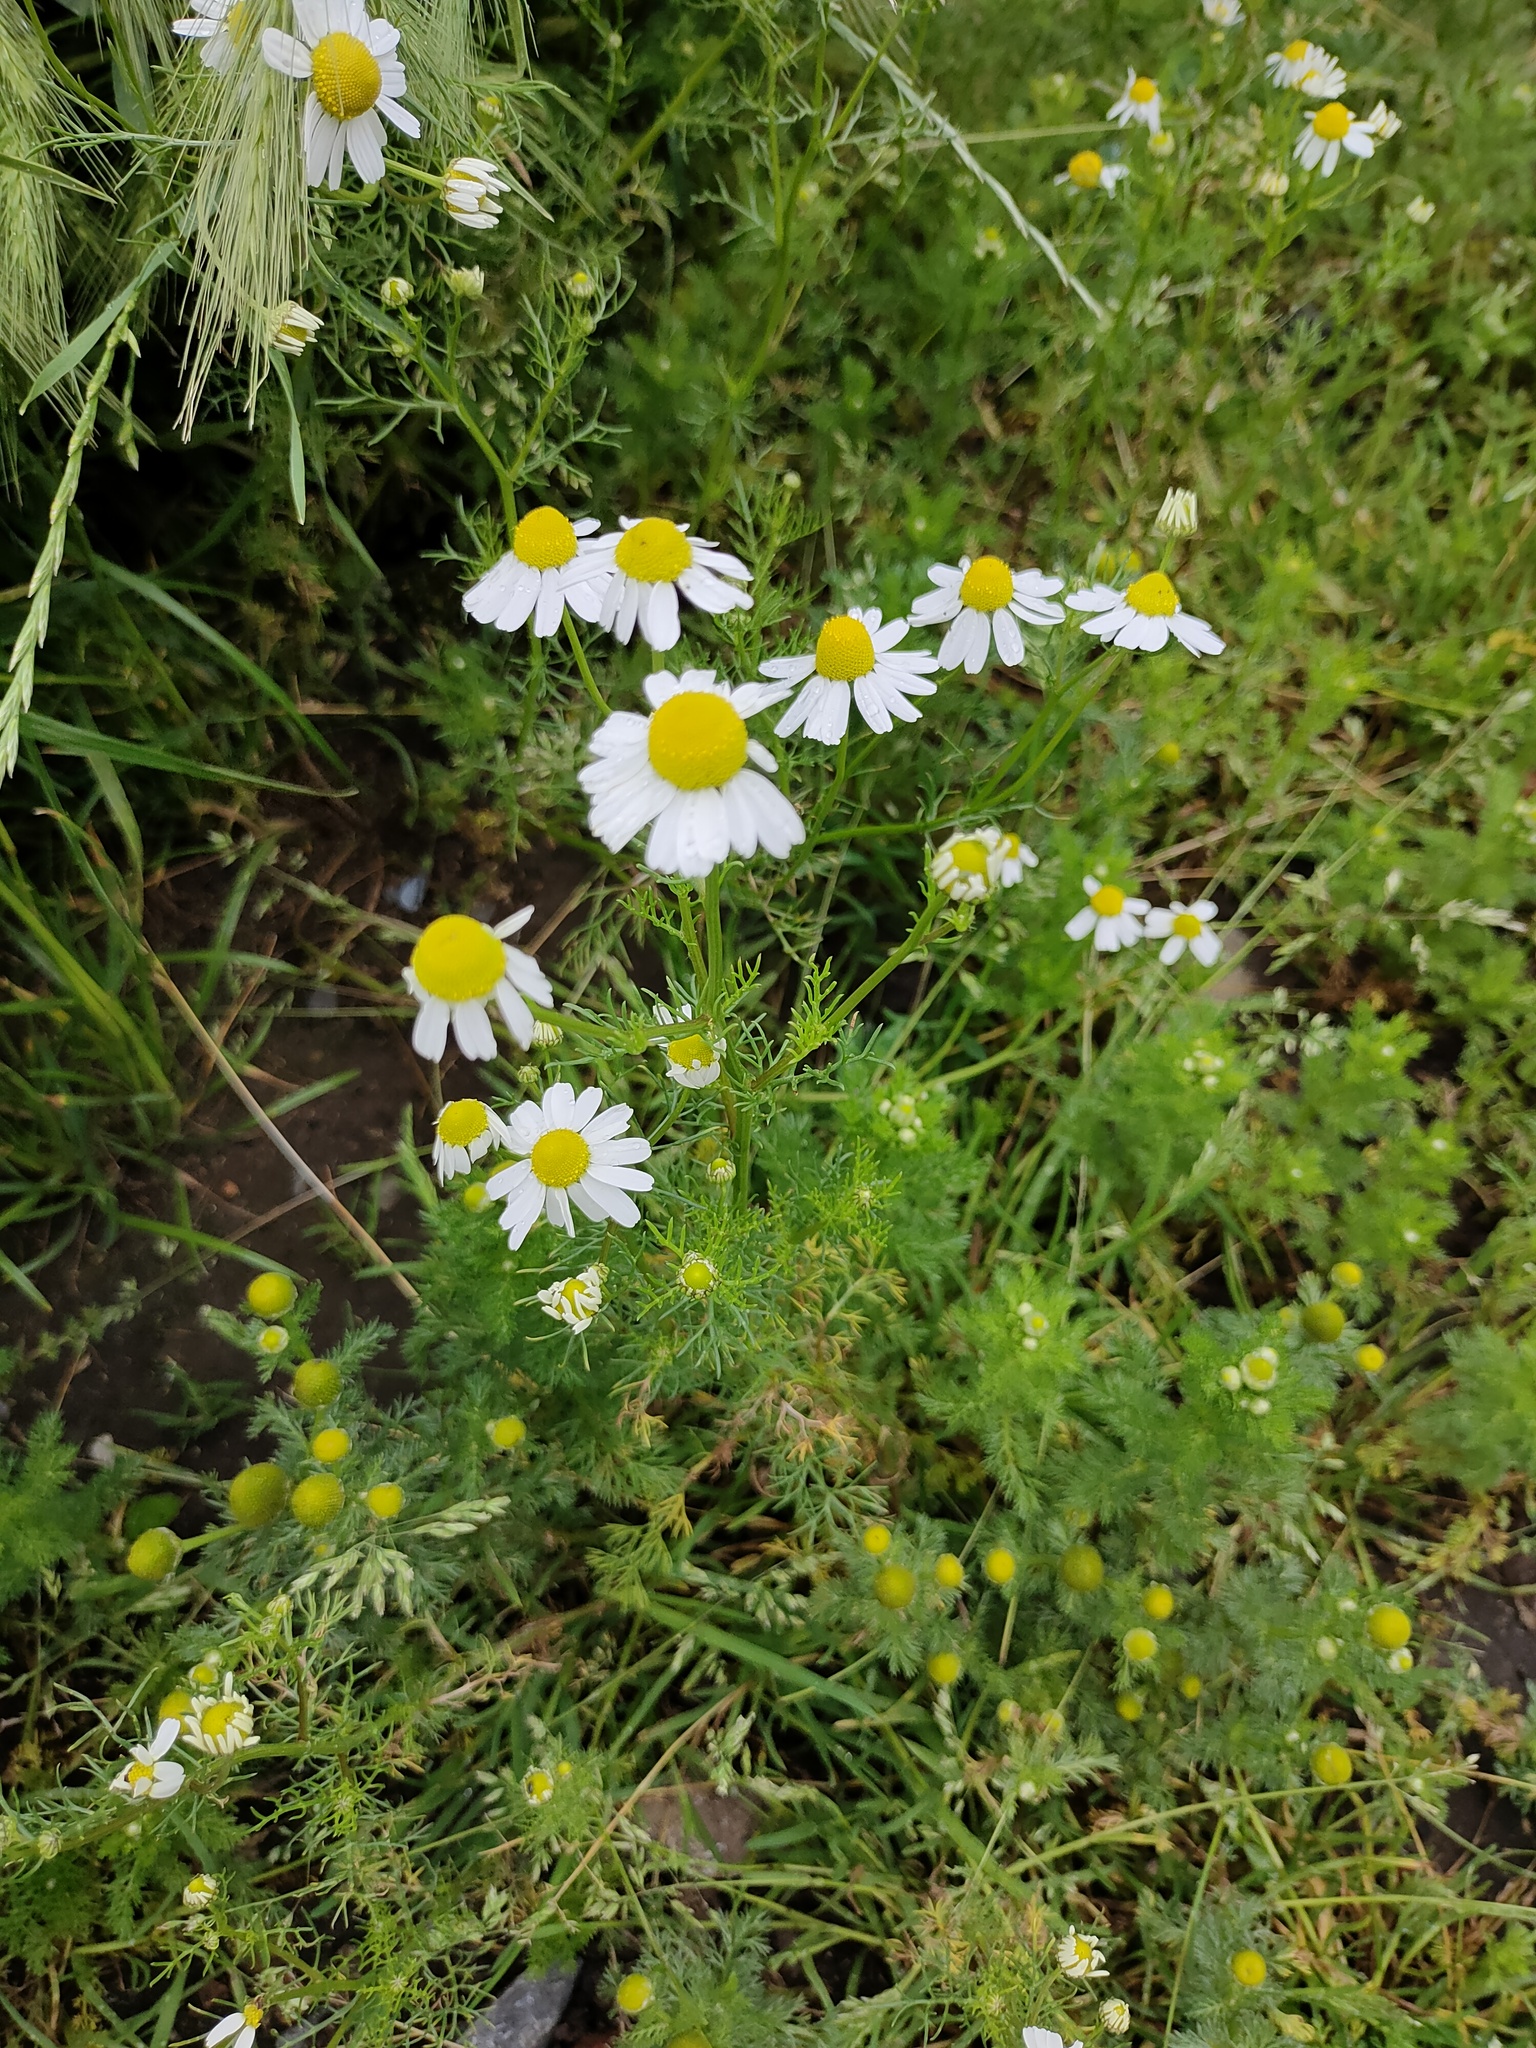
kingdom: Plantae
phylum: Tracheophyta
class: Magnoliopsida
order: Asterales
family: Asteraceae
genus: Matricaria
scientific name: Matricaria chamomilla
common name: Scented mayweed
